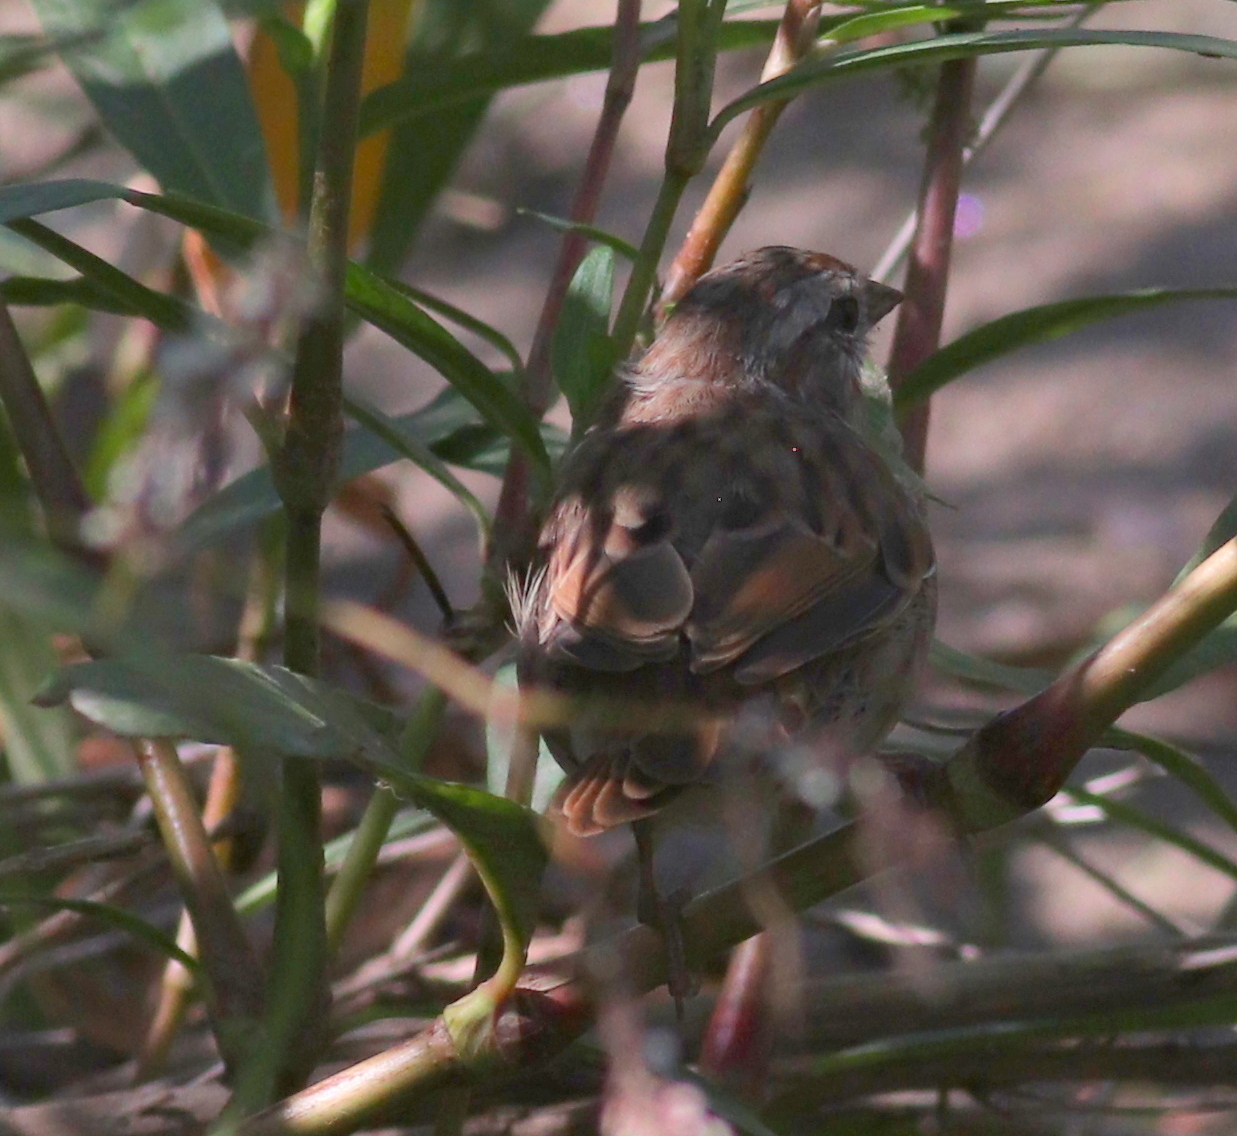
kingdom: Animalia
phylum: Chordata
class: Aves
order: Passeriformes
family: Passerellidae
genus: Melospiza
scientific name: Melospiza melodia
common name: Song sparrow
